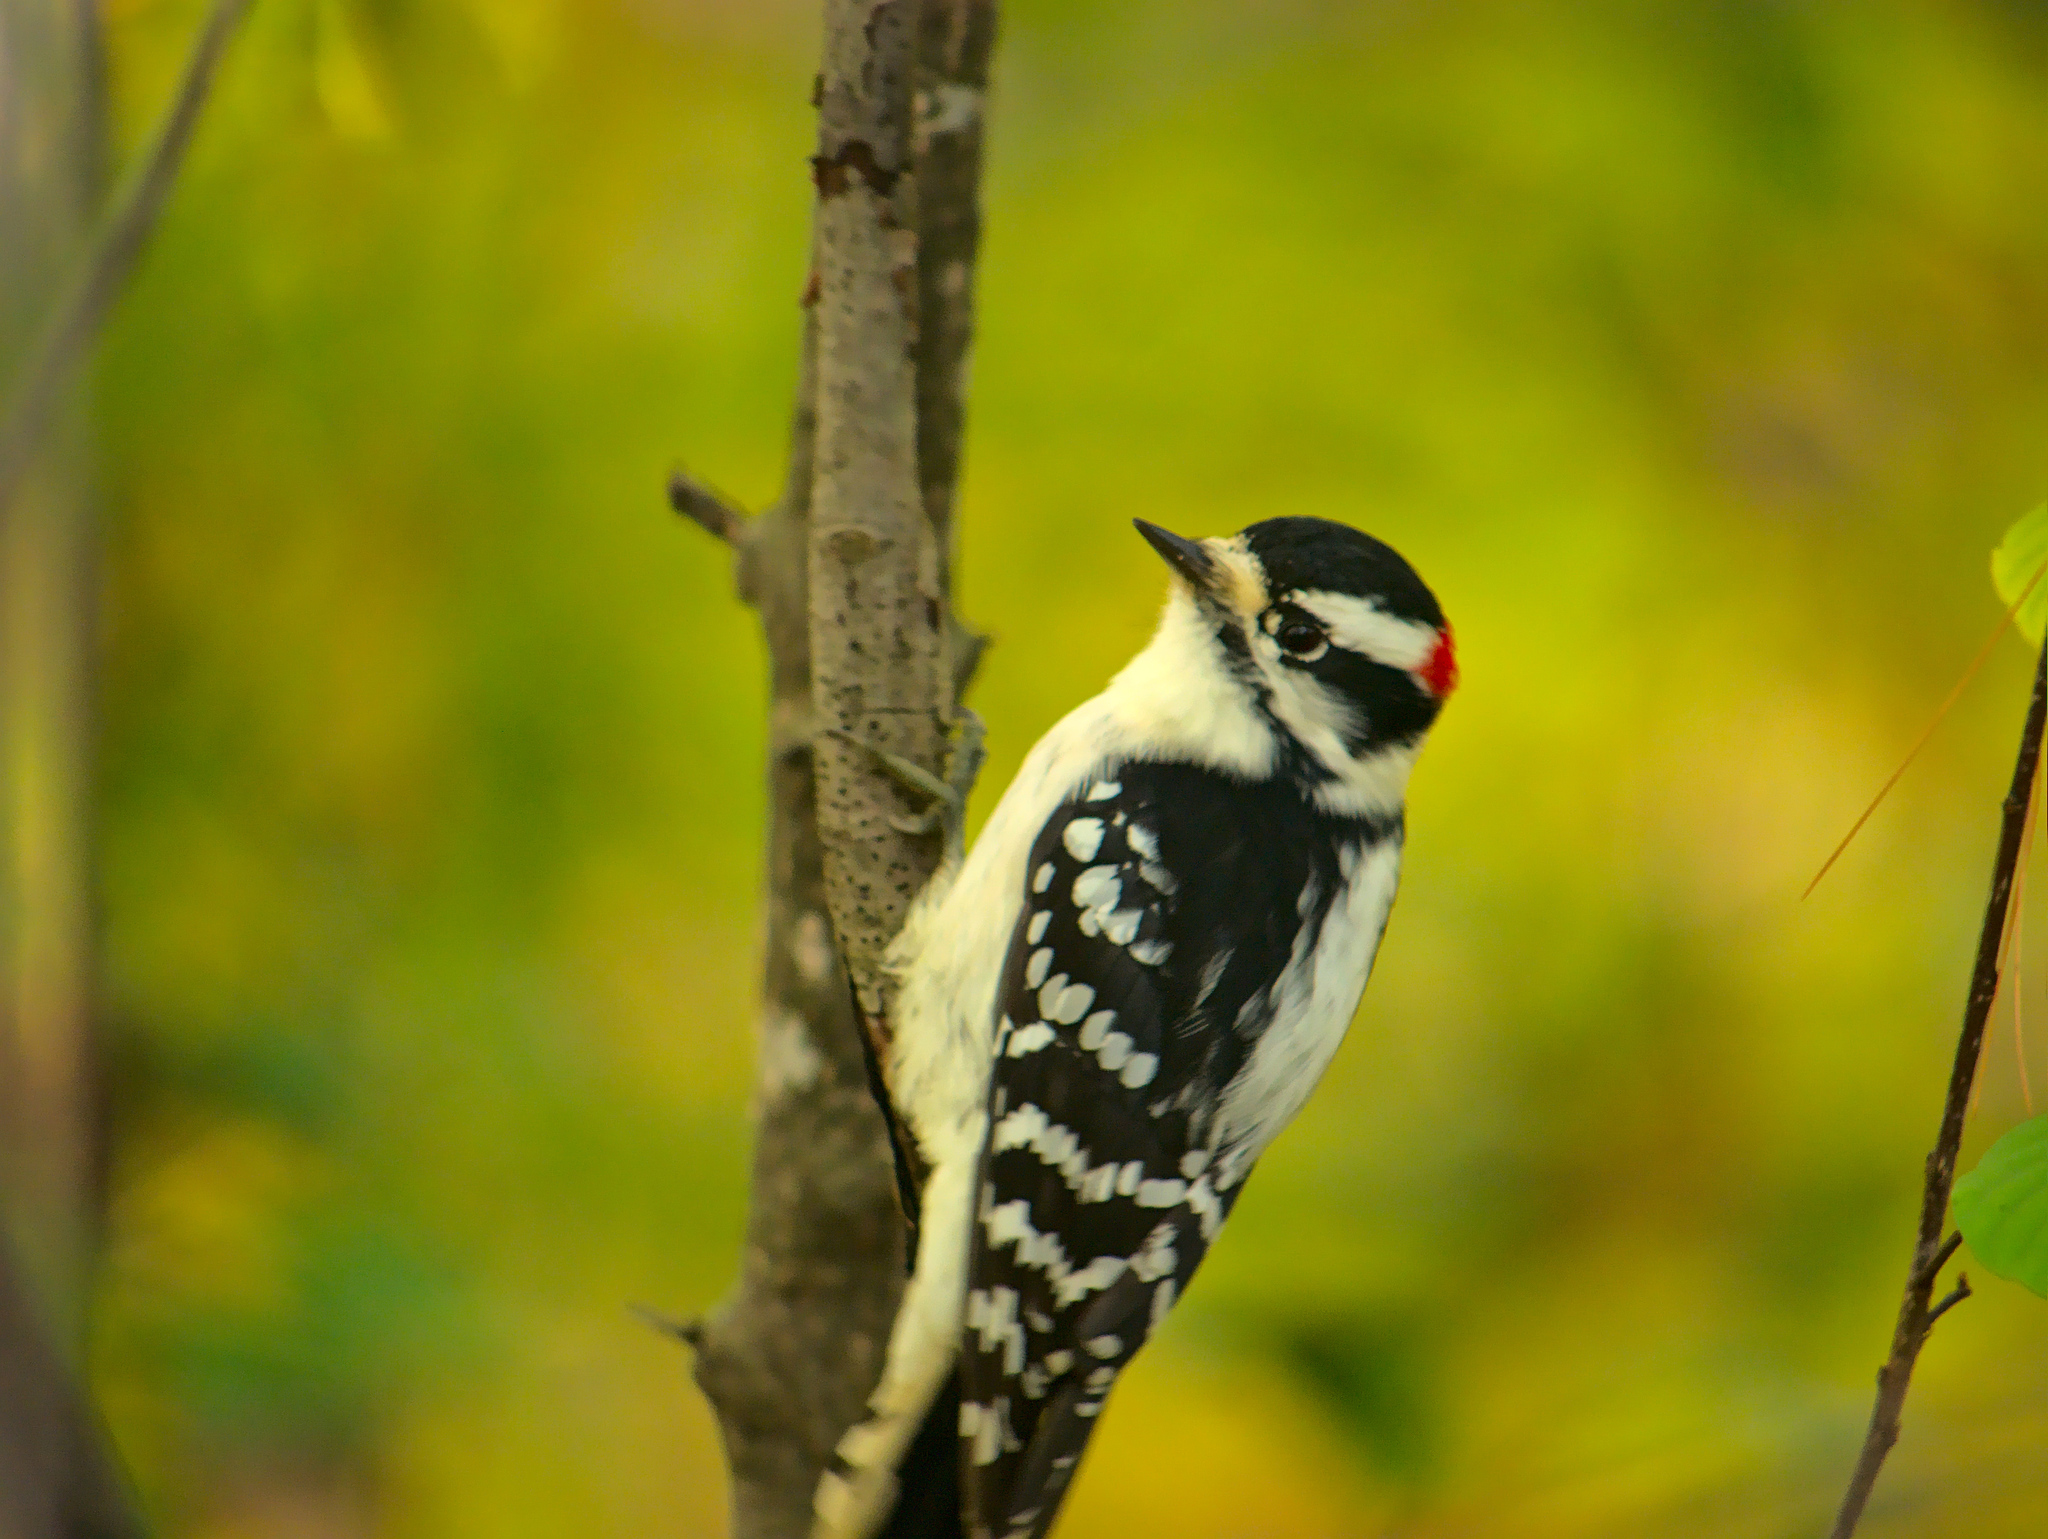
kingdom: Animalia
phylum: Chordata
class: Aves
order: Piciformes
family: Picidae
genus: Dryobates
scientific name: Dryobates pubescens
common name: Downy woodpecker
